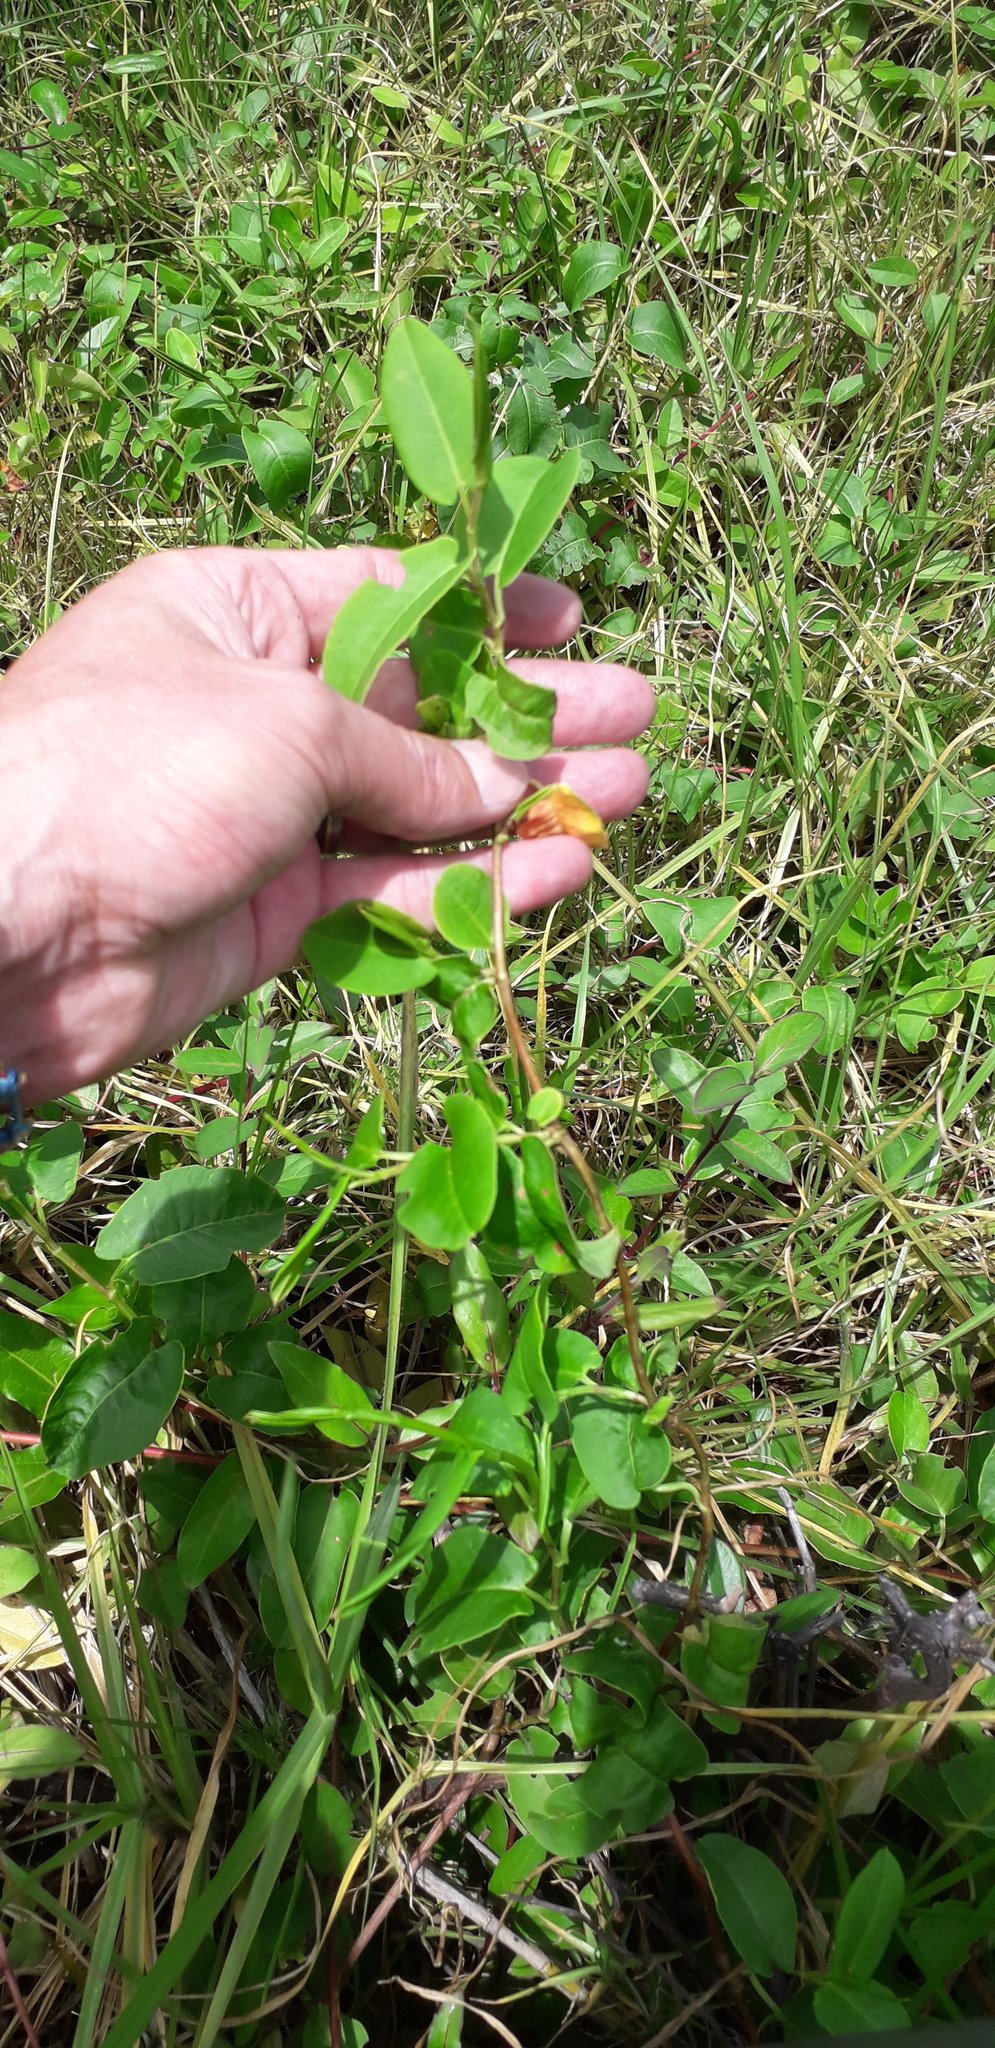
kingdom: Plantae
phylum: Tracheophyta
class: Magnoliopsida
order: Caryophyllales
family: Polygonaceae
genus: Muehlenbeckia
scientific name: Muehlenbeckia tamnifolia
